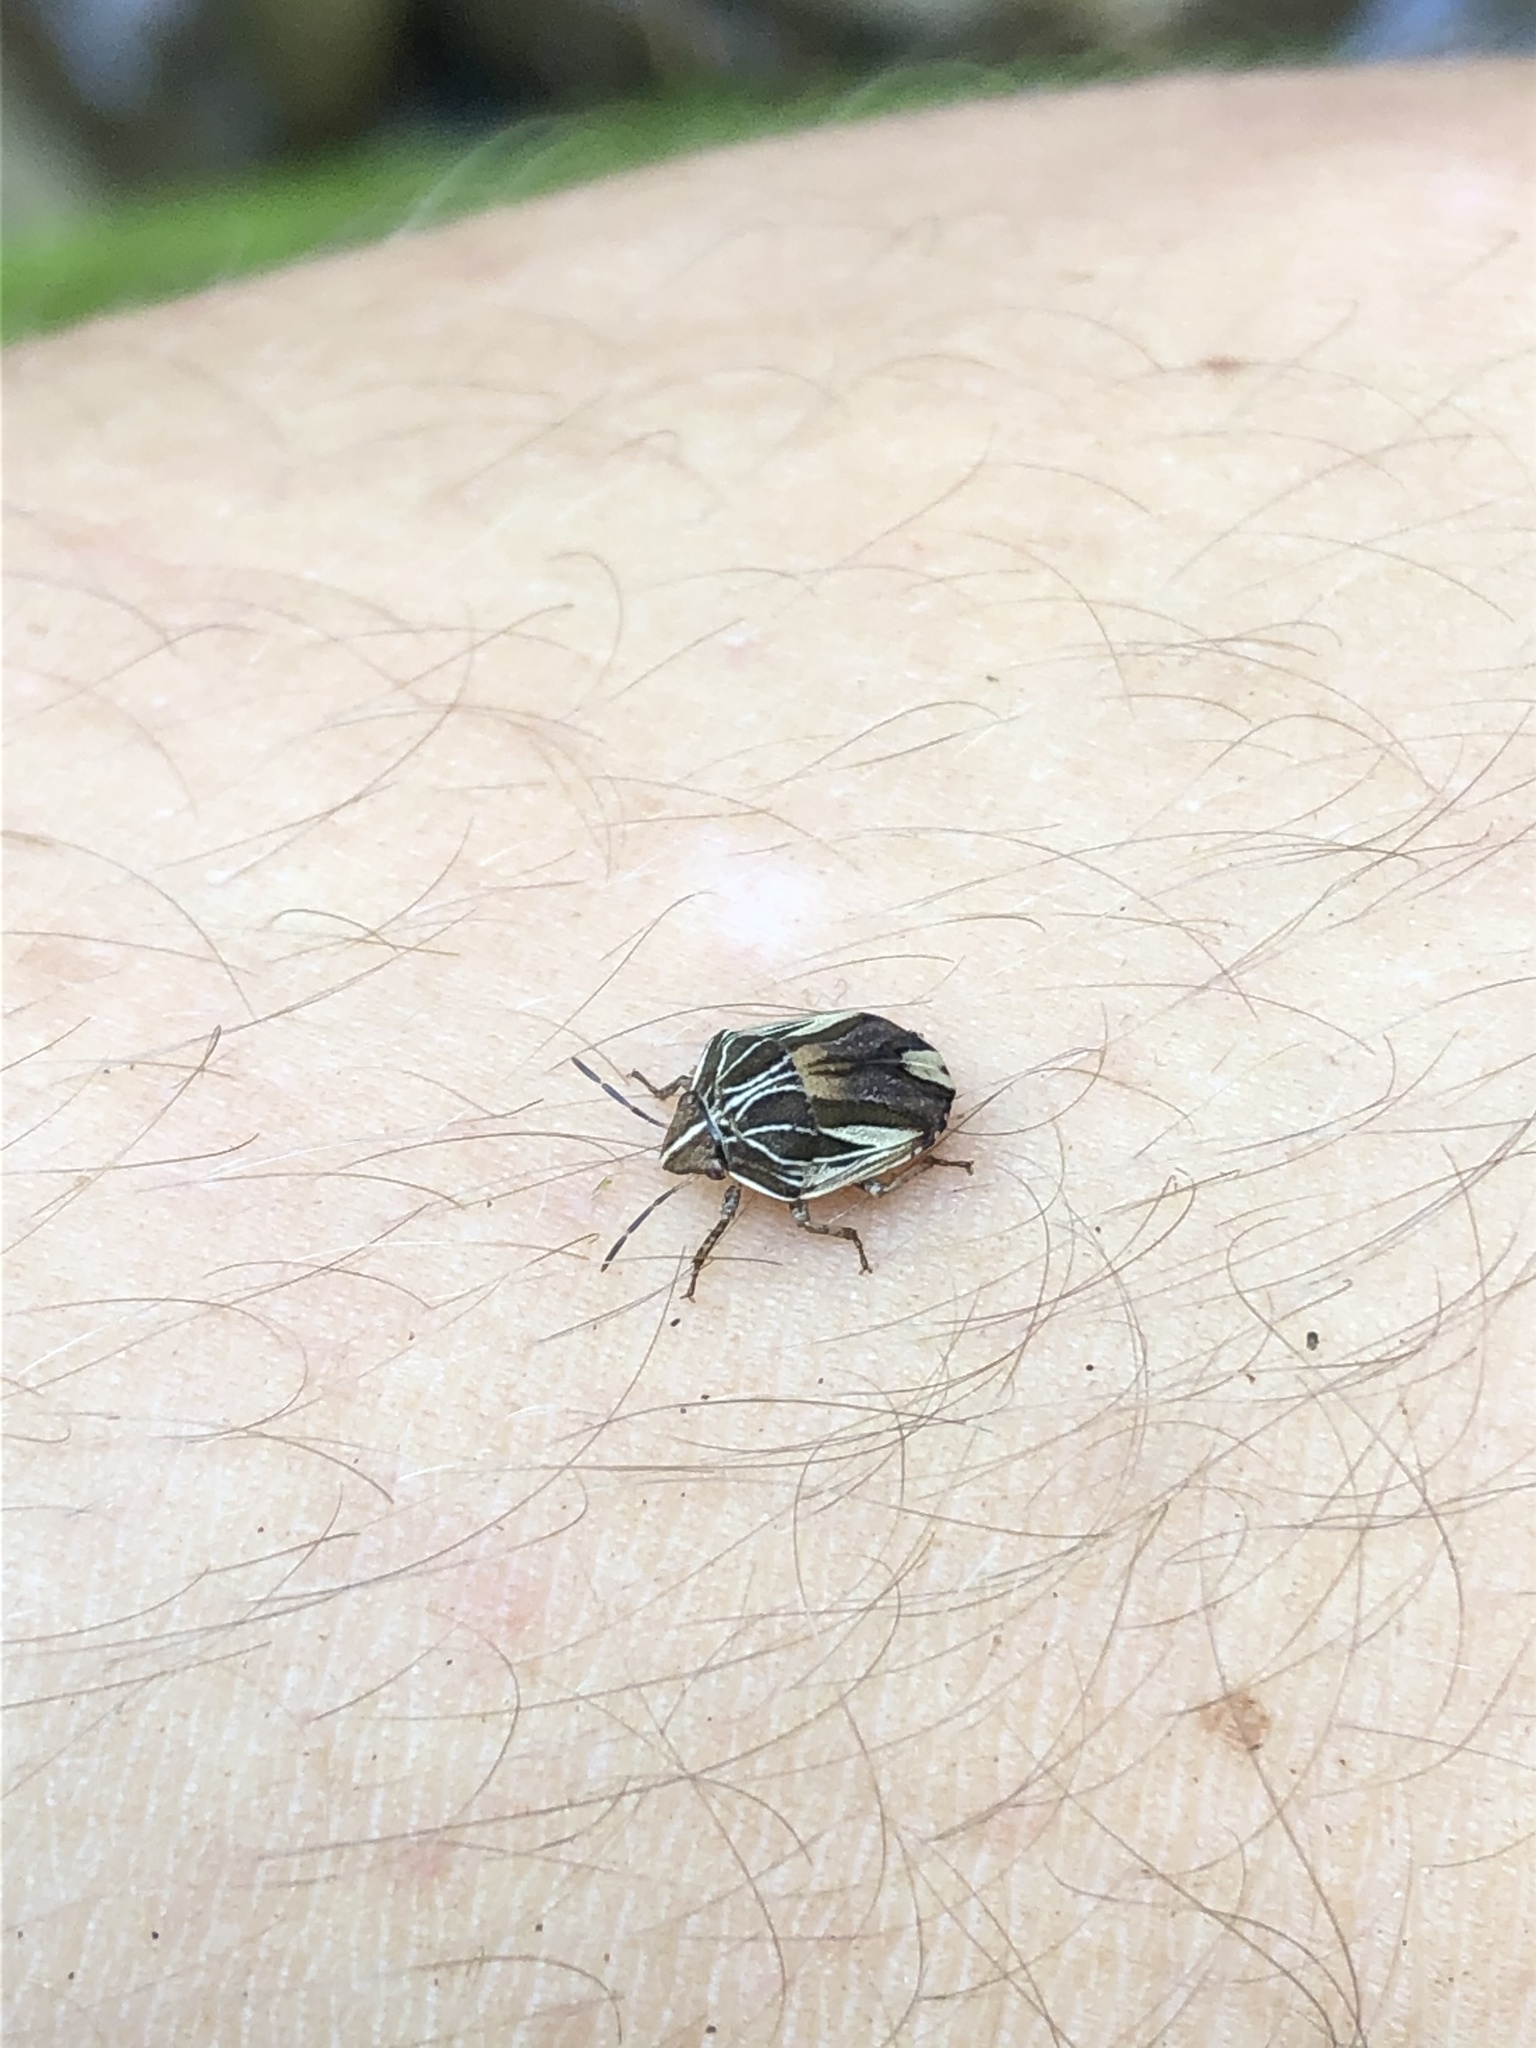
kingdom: Animalia
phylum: Arthropoda
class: Insecta
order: Hemiptera
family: Scutelleridae
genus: Symphylus
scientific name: Symphylus ramivitta
